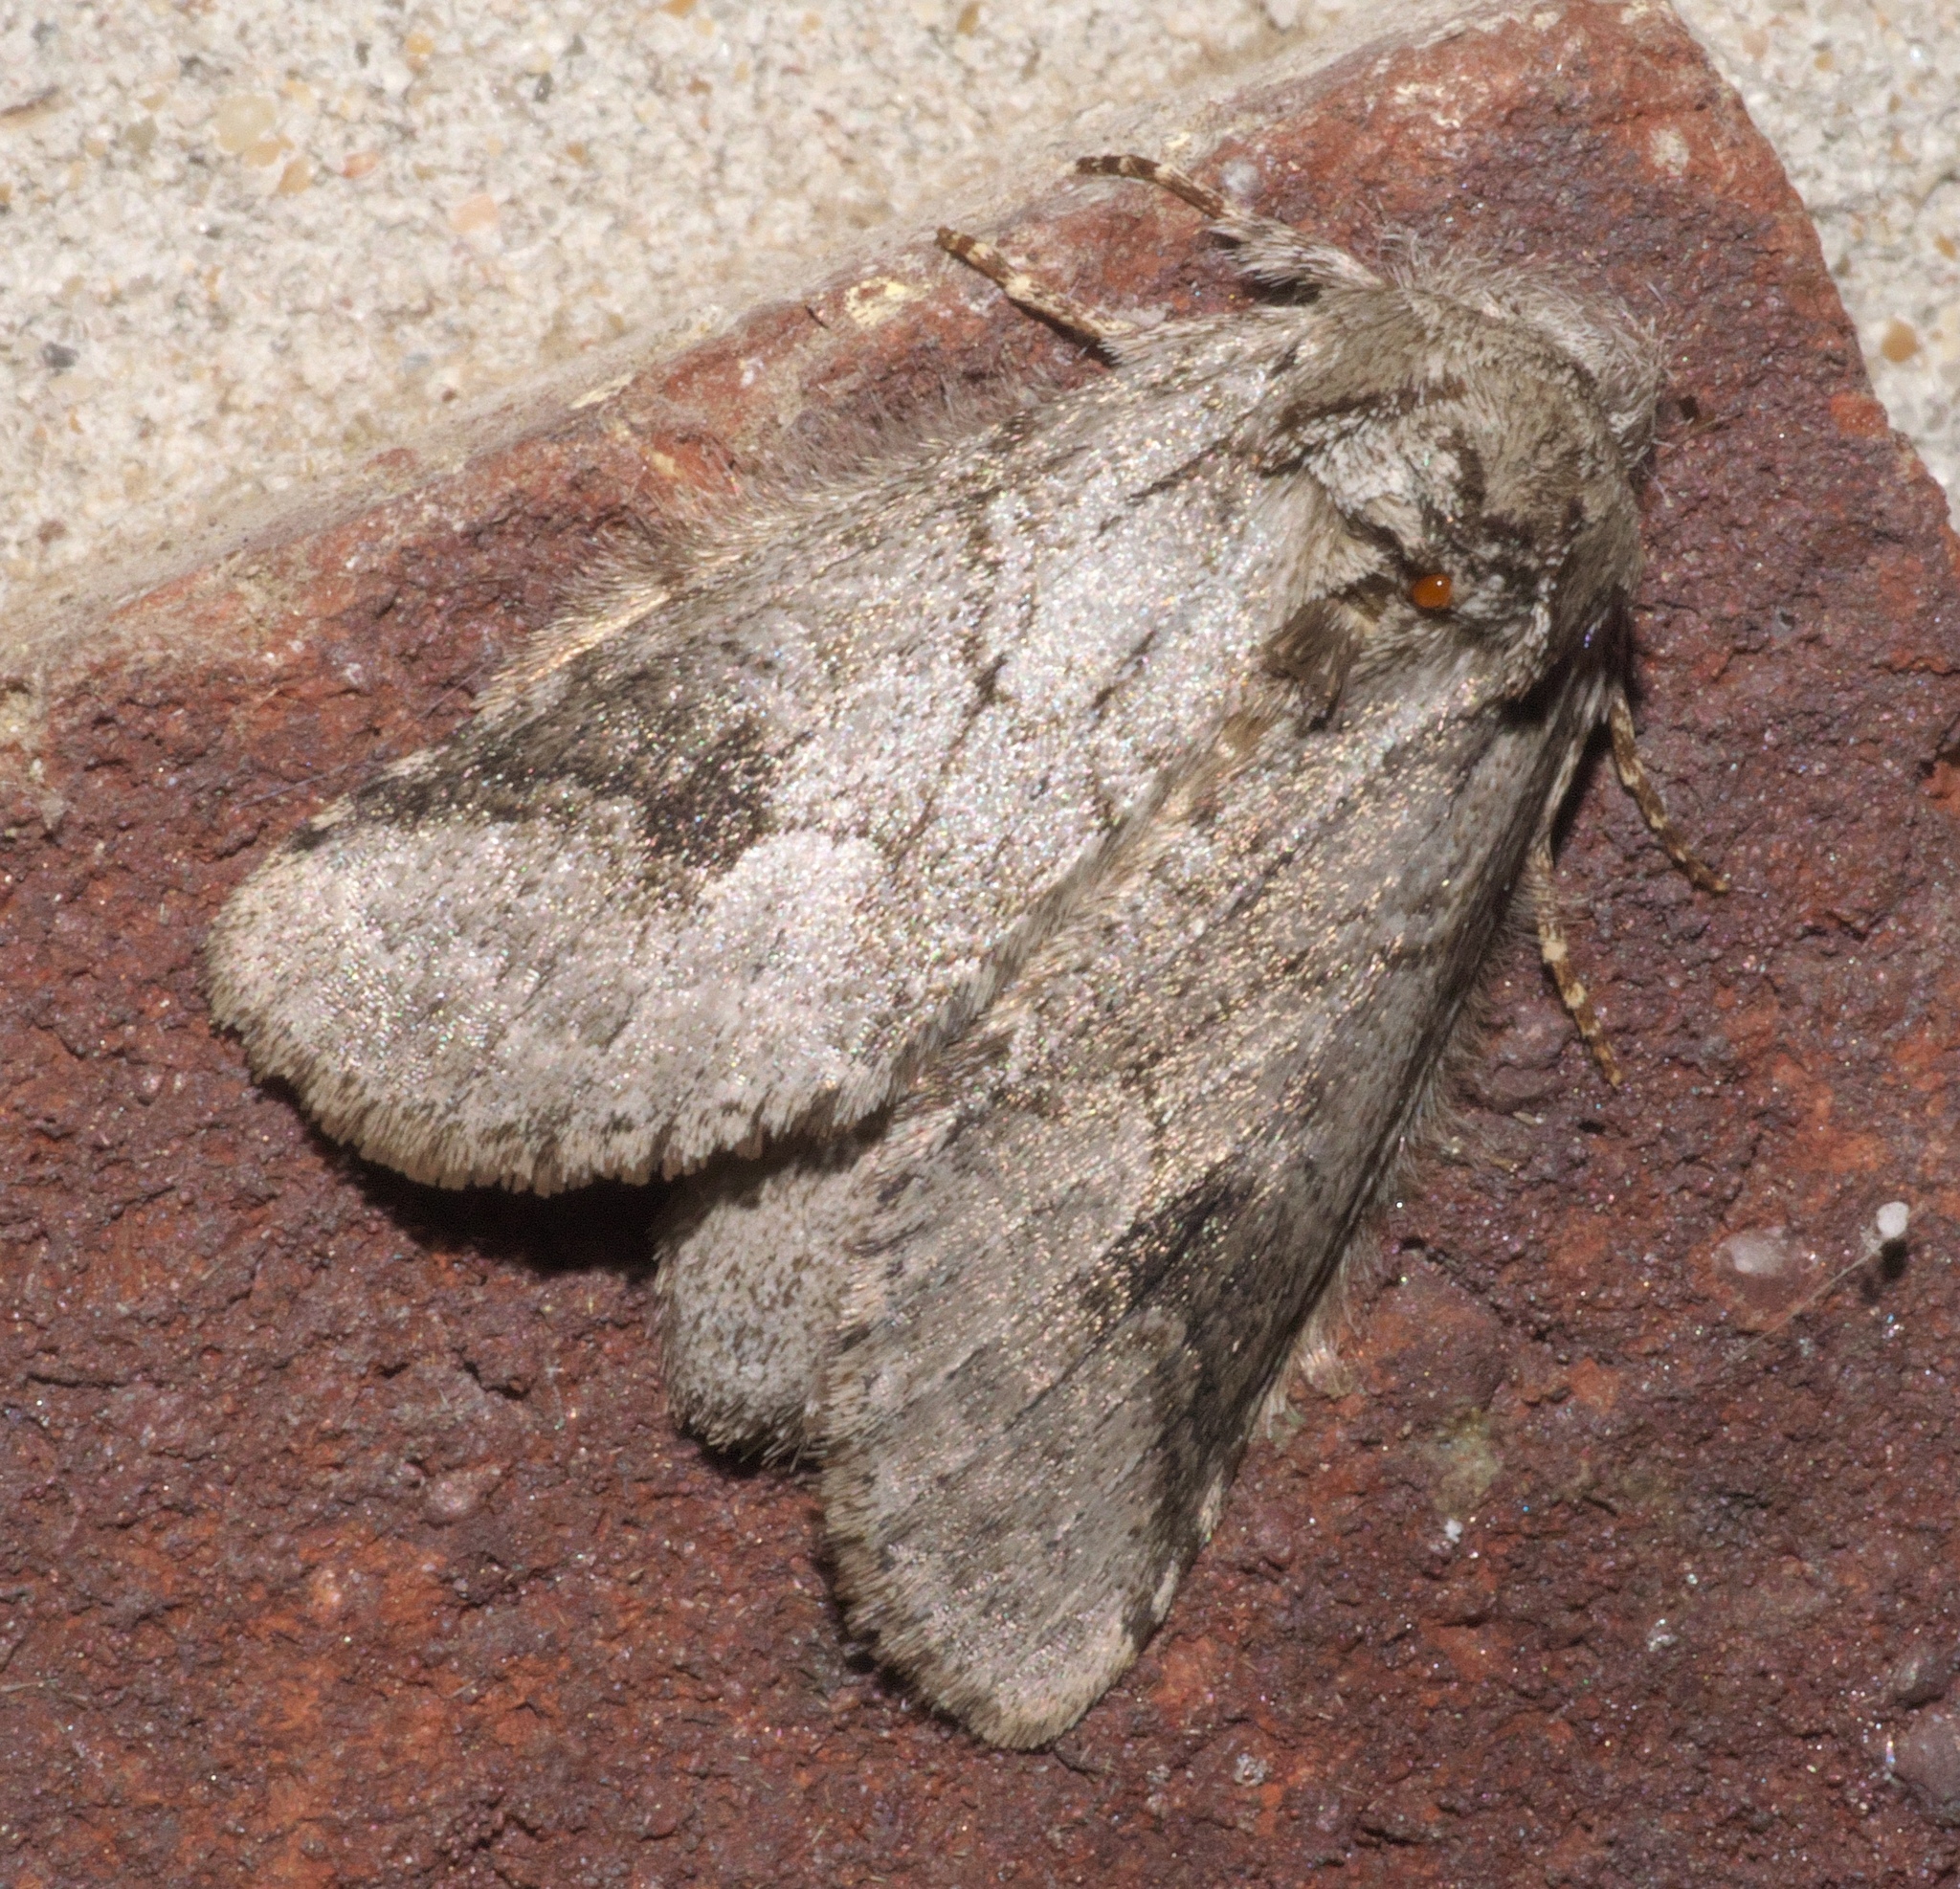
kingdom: Animalia
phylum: Arthropoda
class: Insecta
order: Lepidoptera
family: Notodontidae
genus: Lochmaeus
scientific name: Lochmaeus bilineata
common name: Double-lined prominent
